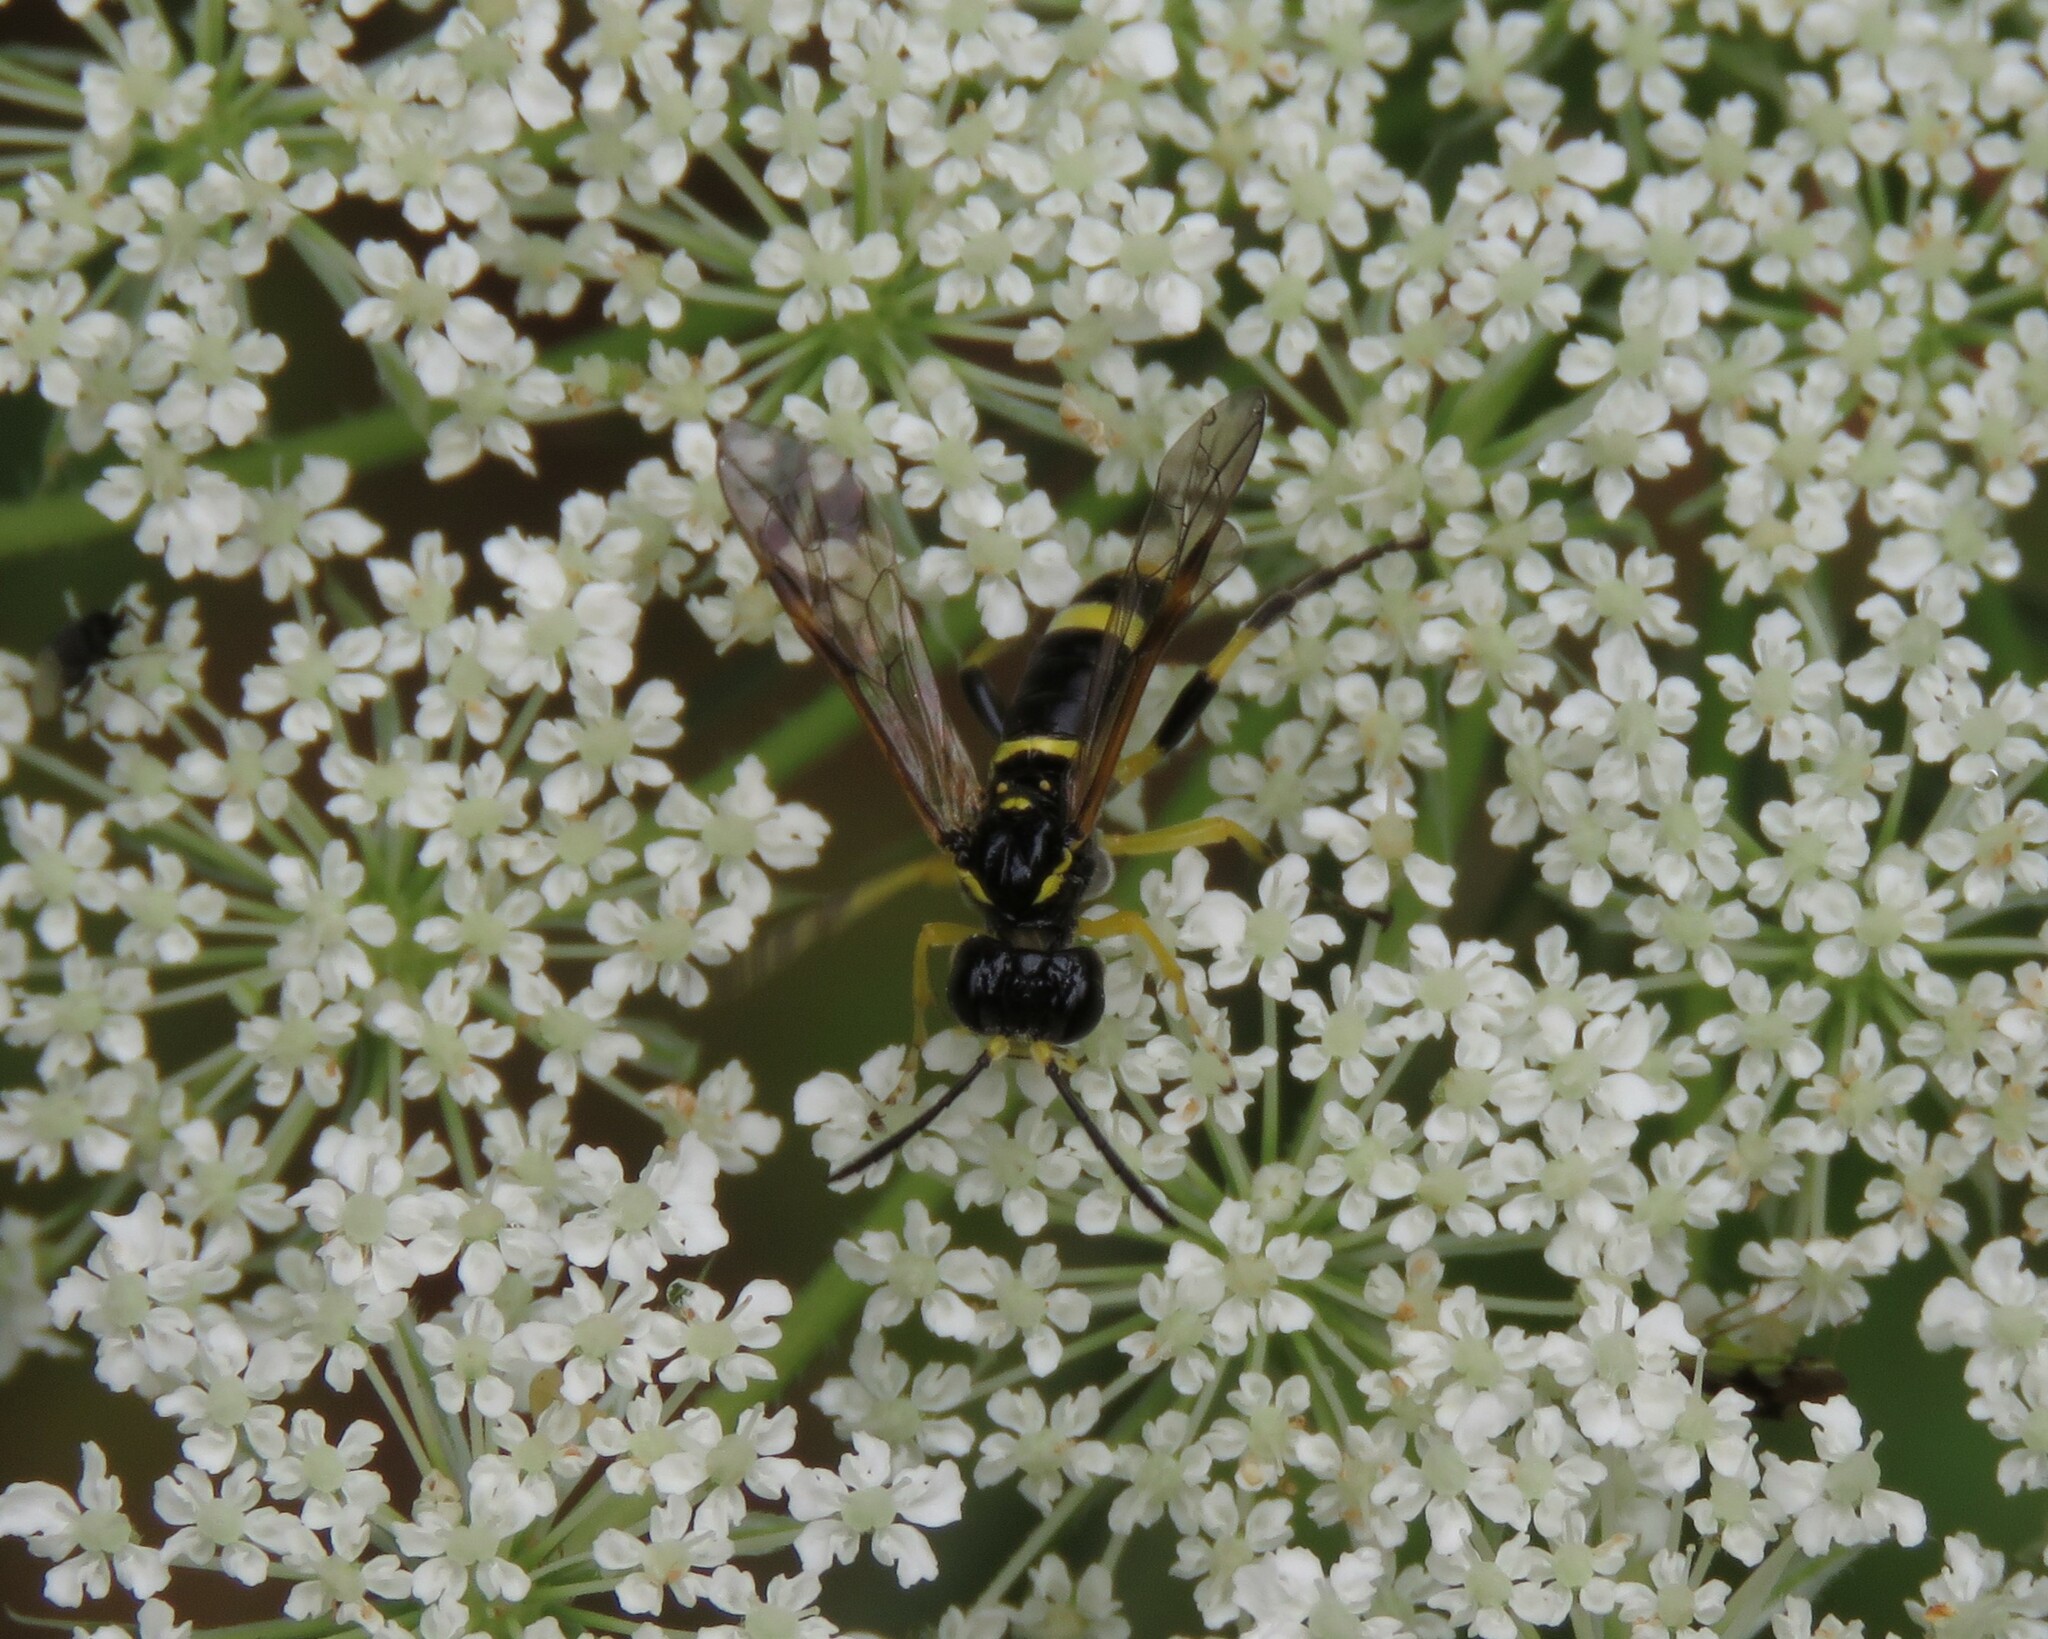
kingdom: Animalia
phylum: Arthropoda
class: Insecta
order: Hymenoptera
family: Tenthredinidae
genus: Tenthredo
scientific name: Tenthredo amoena
